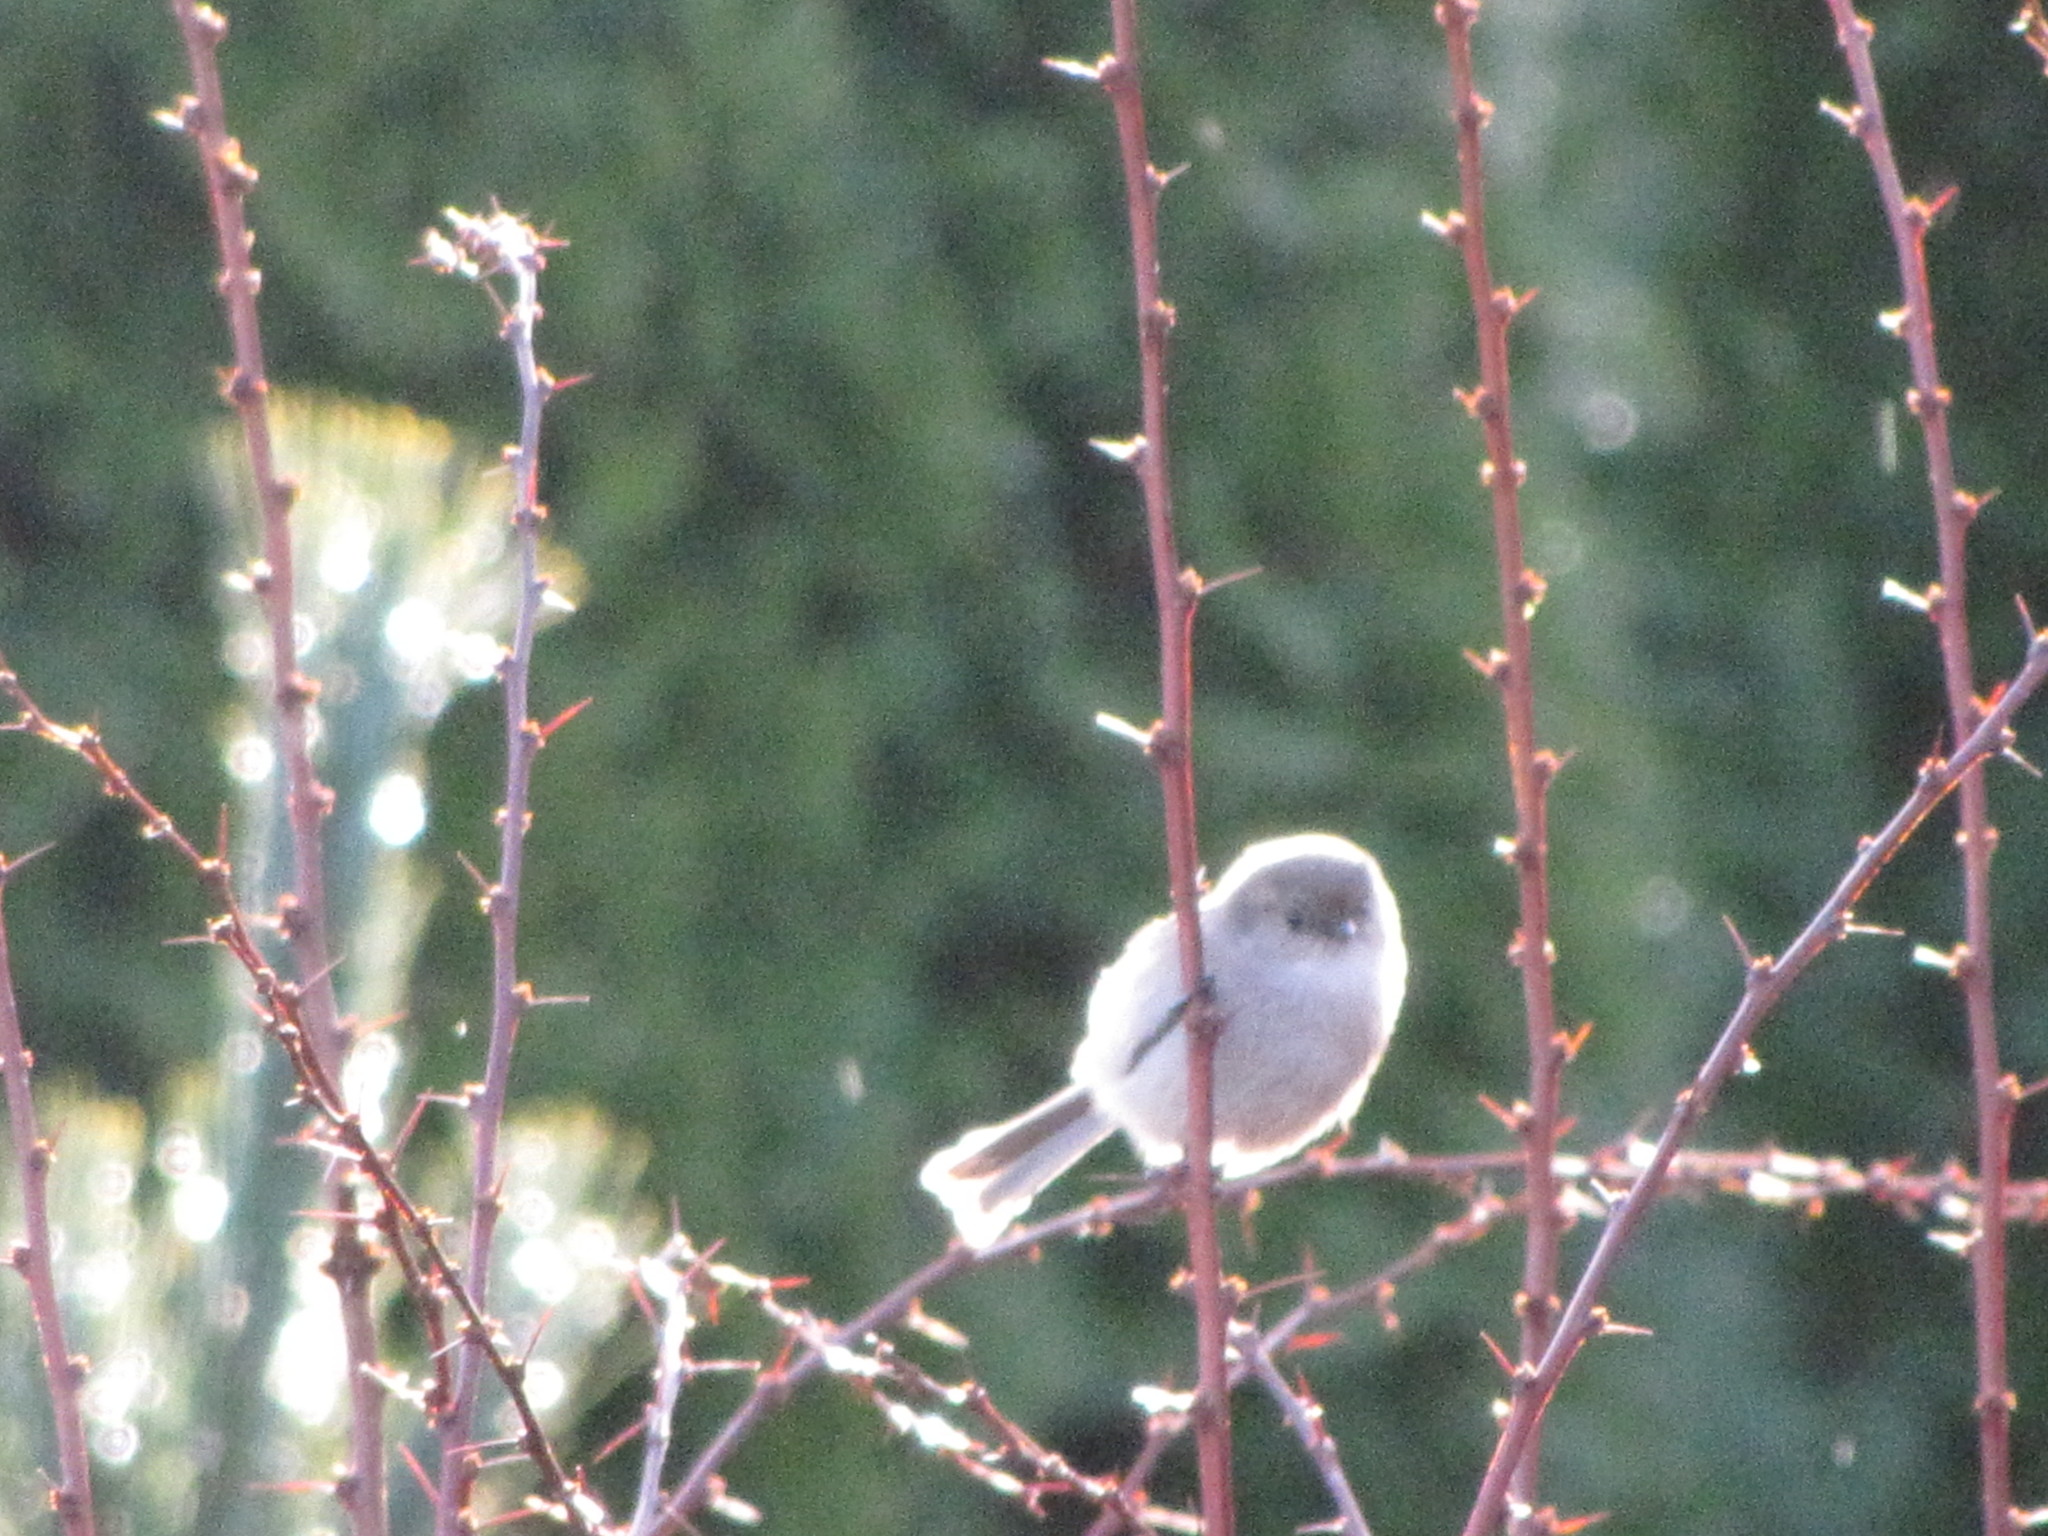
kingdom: Animalia
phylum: Chordata
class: Aves
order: Passeriformes
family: Aegithalidae
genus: Psaltriparus
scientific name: Psaltriparus minimus
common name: American bushtit
